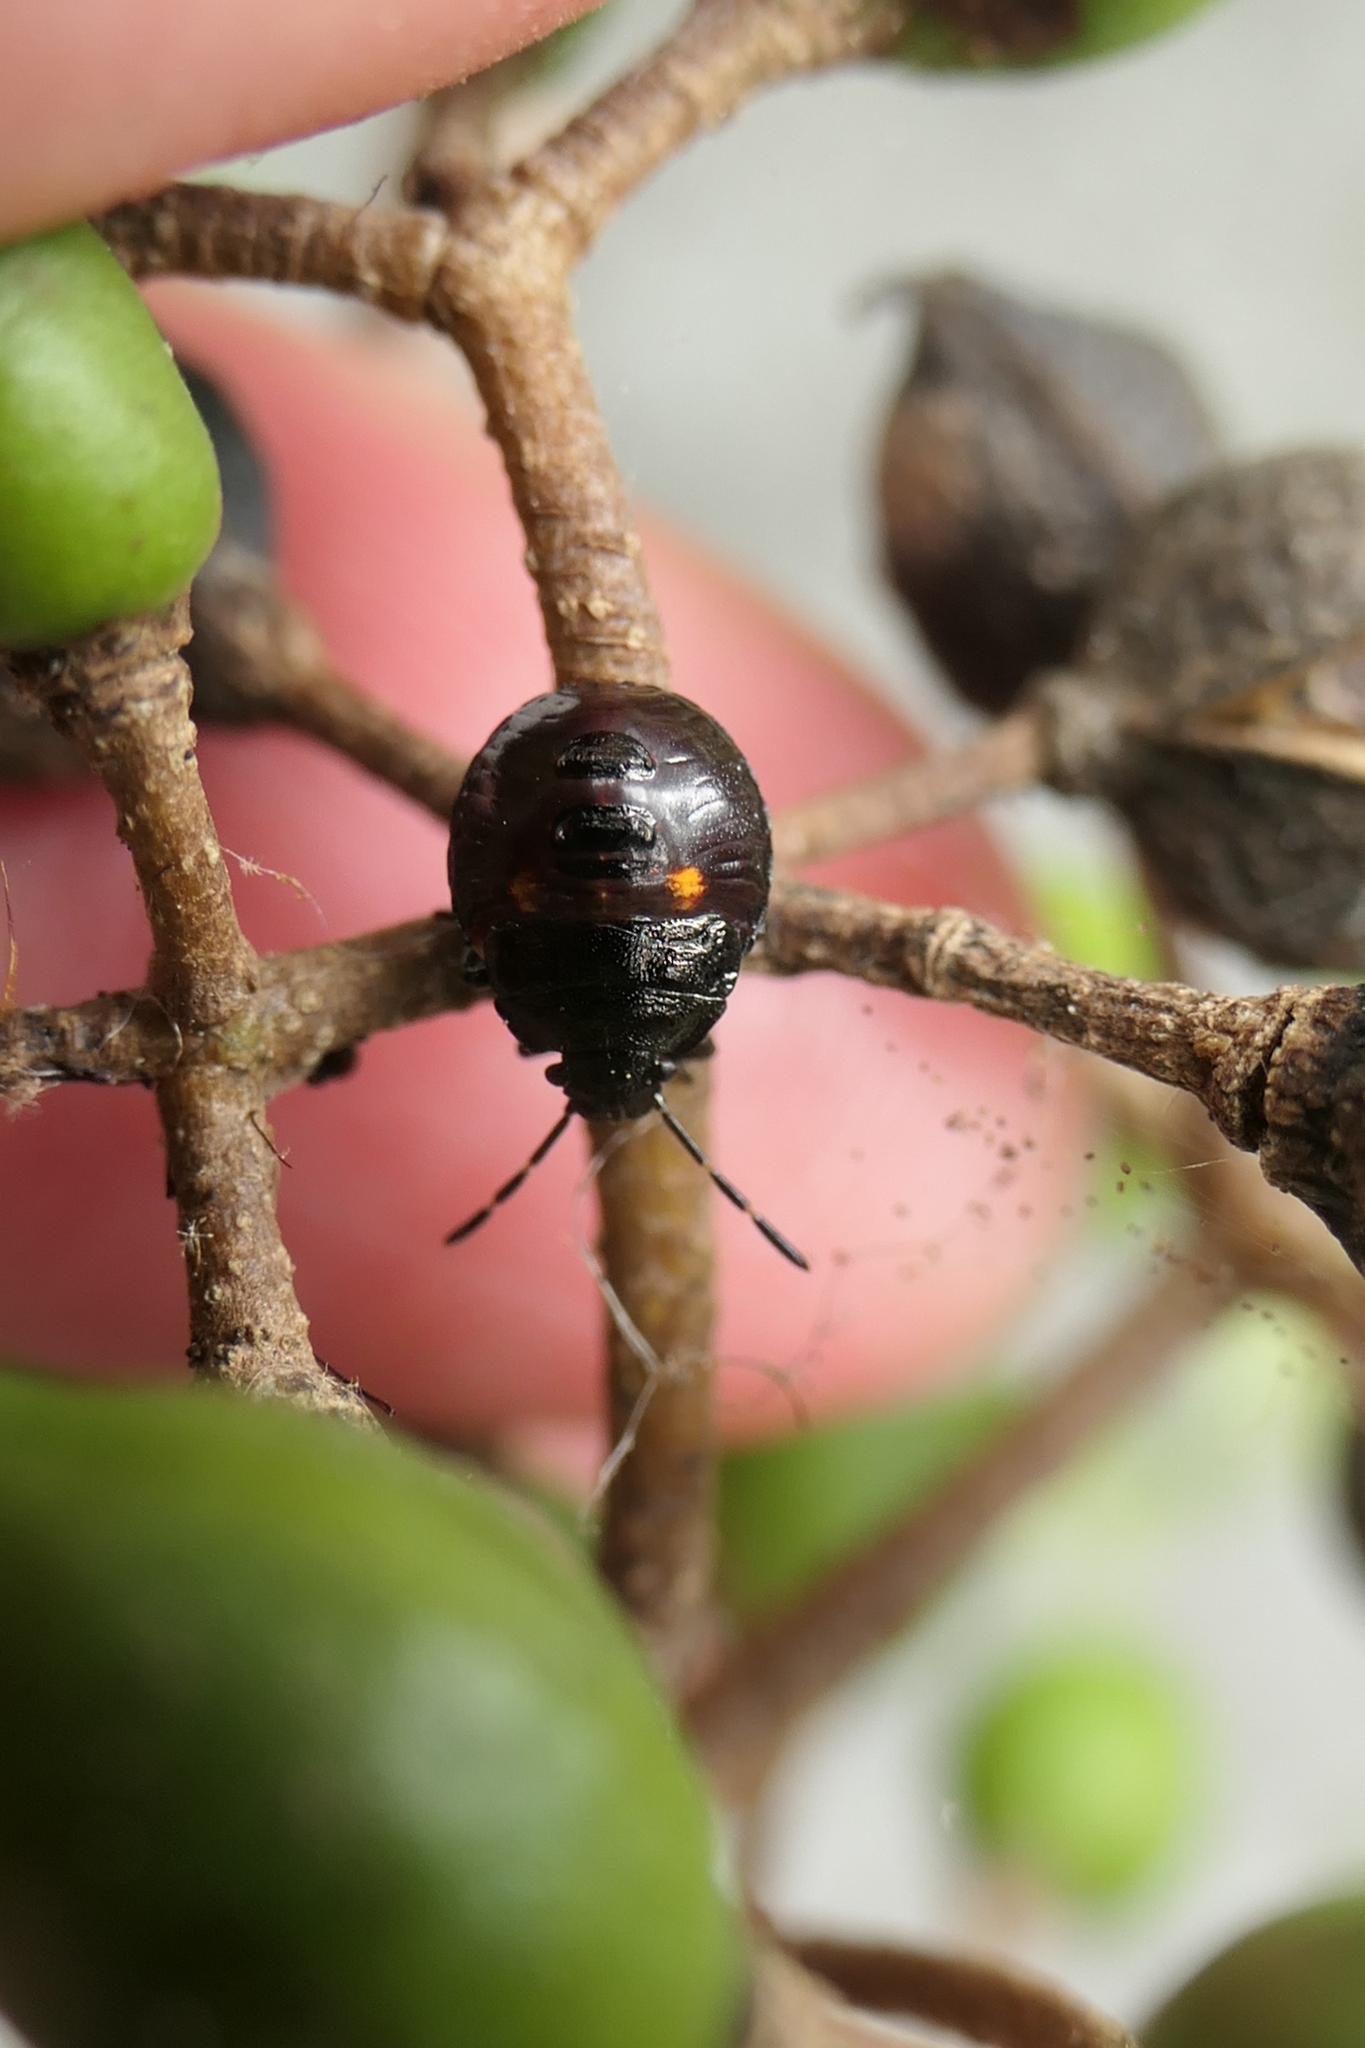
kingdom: Animalia
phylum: Arthropoda
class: Insecta
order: Hemiptera
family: Pentatomidae
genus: Monteithiella
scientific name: Monteithiella
